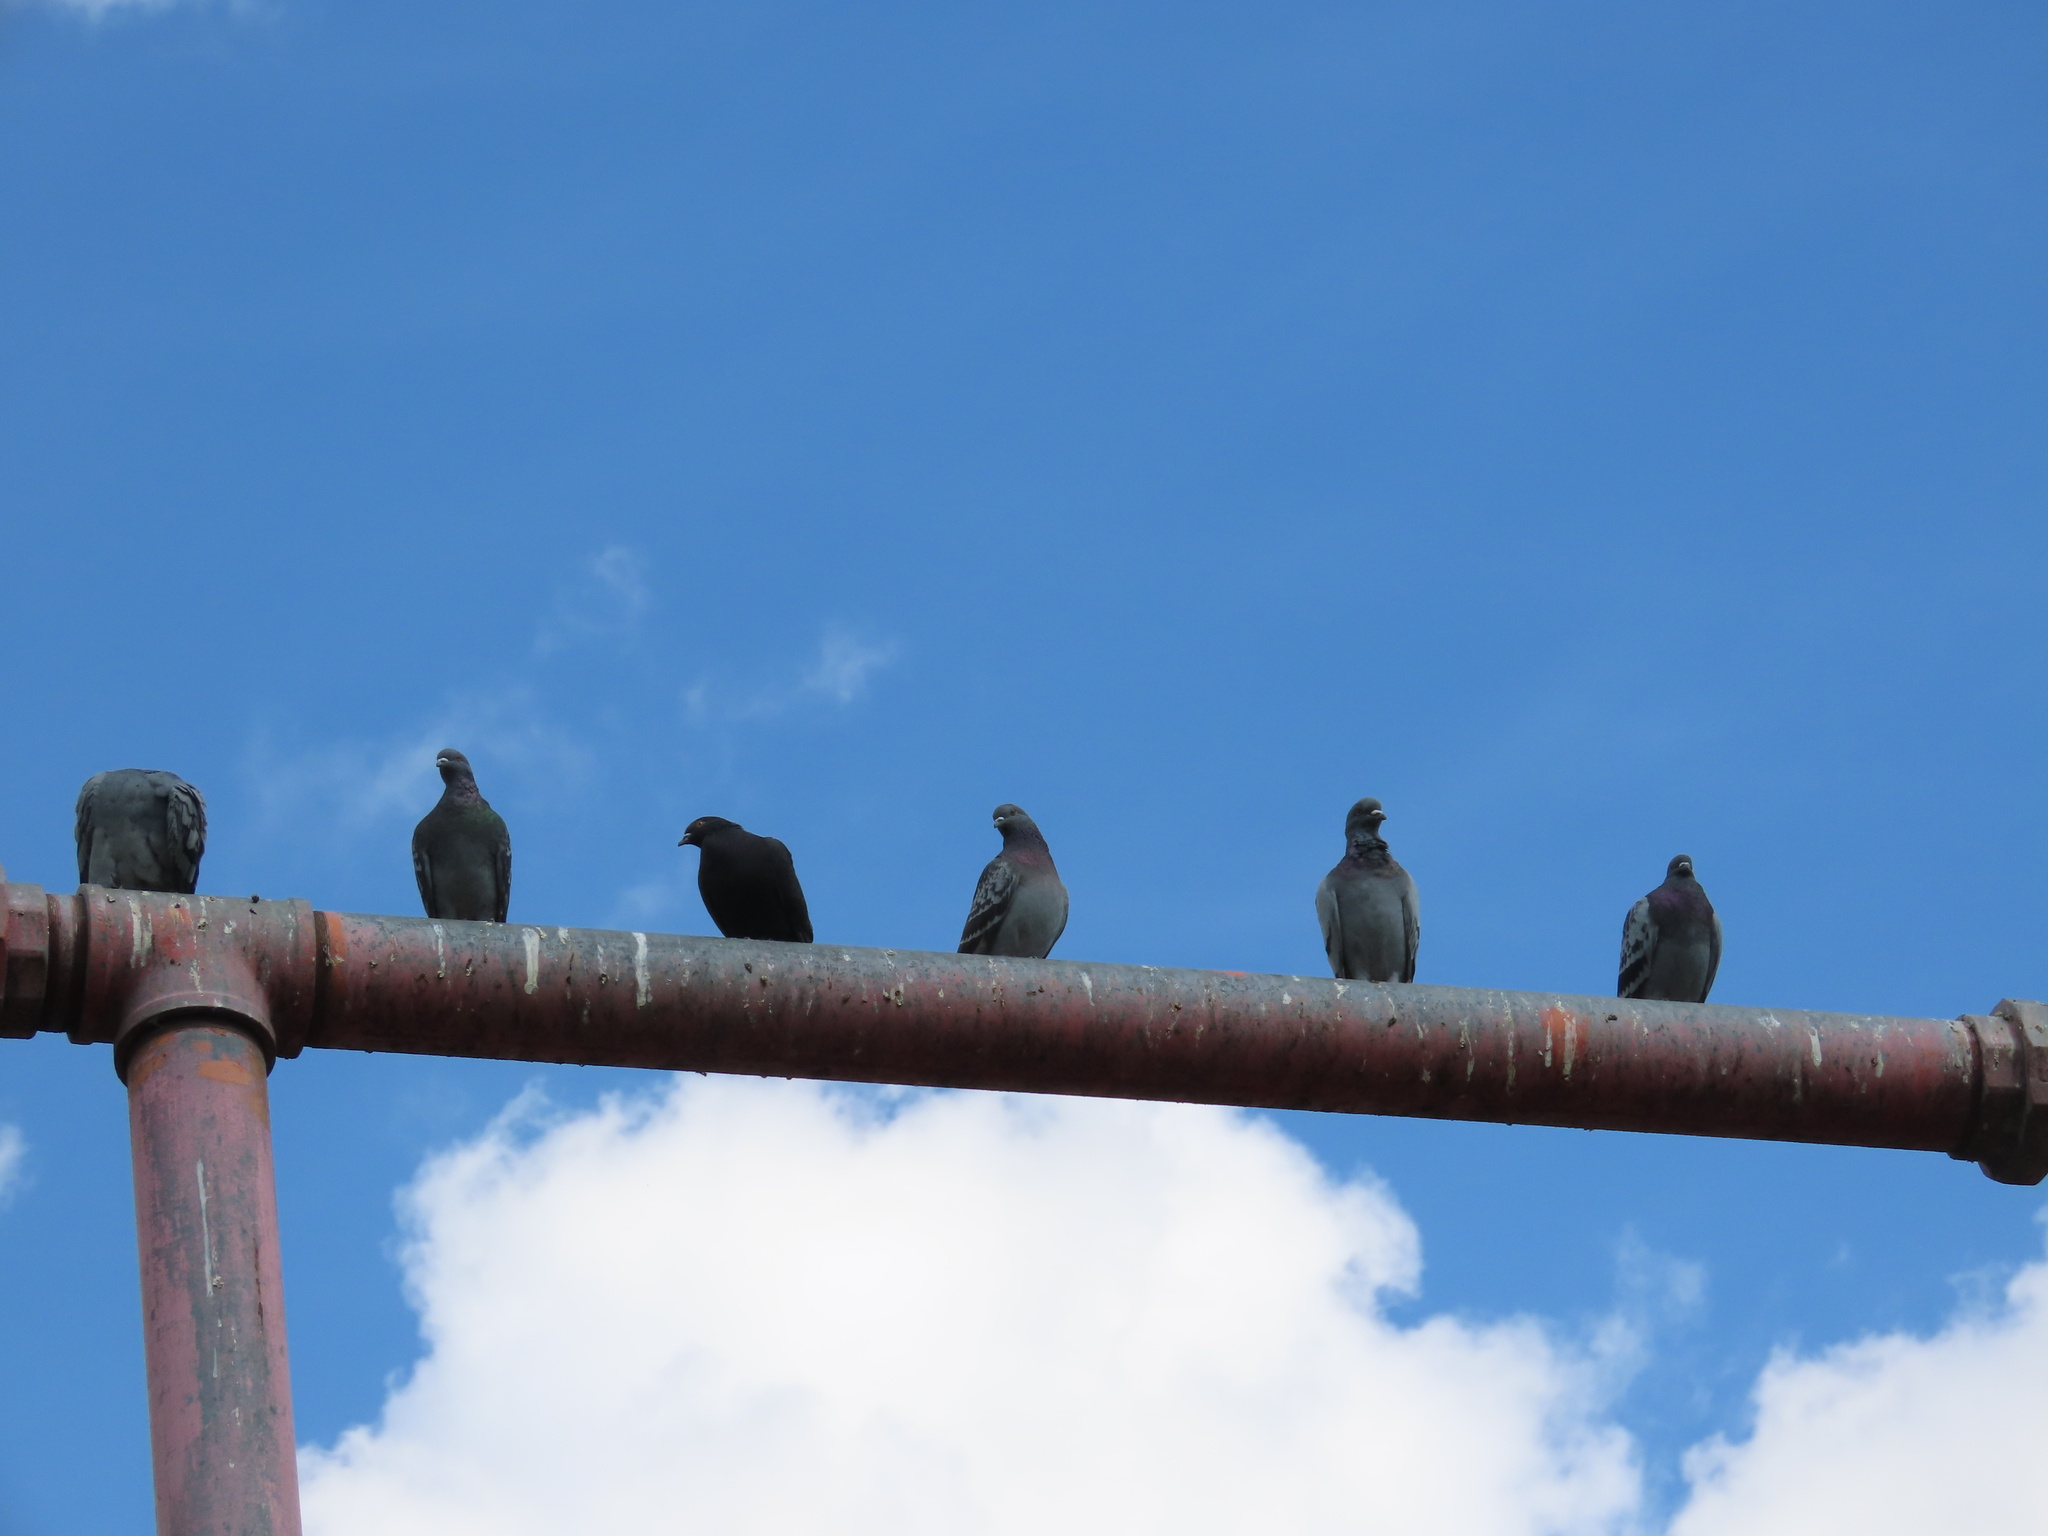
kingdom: Animalia
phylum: Chordata
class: Aves
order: Columbiformes
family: Columbidae
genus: Columba
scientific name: Columba livia
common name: Rock pigeon
